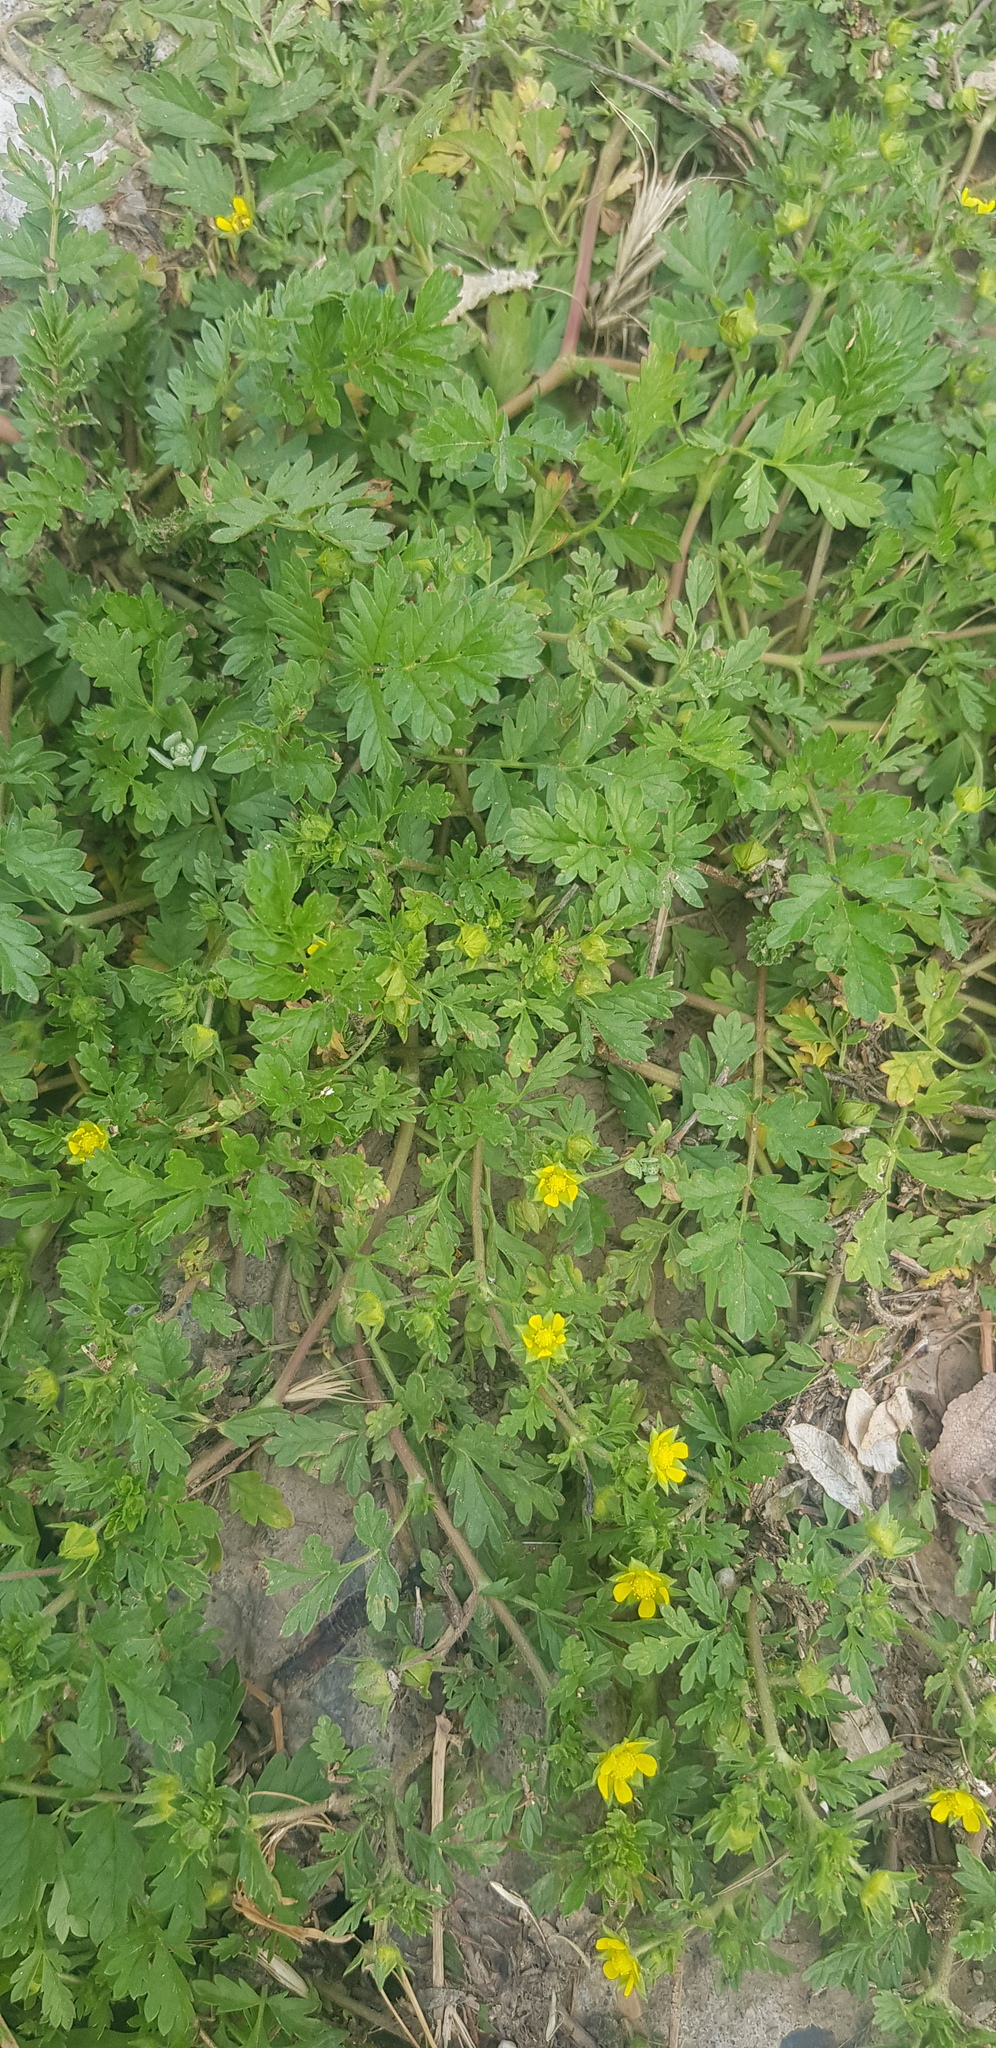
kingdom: Plantae
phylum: Tracheophyta
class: Magnoliopsida
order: Rosales
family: Rosaceae
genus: Potentilla
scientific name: Potentilla supina
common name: Prostrate cinquefoil
